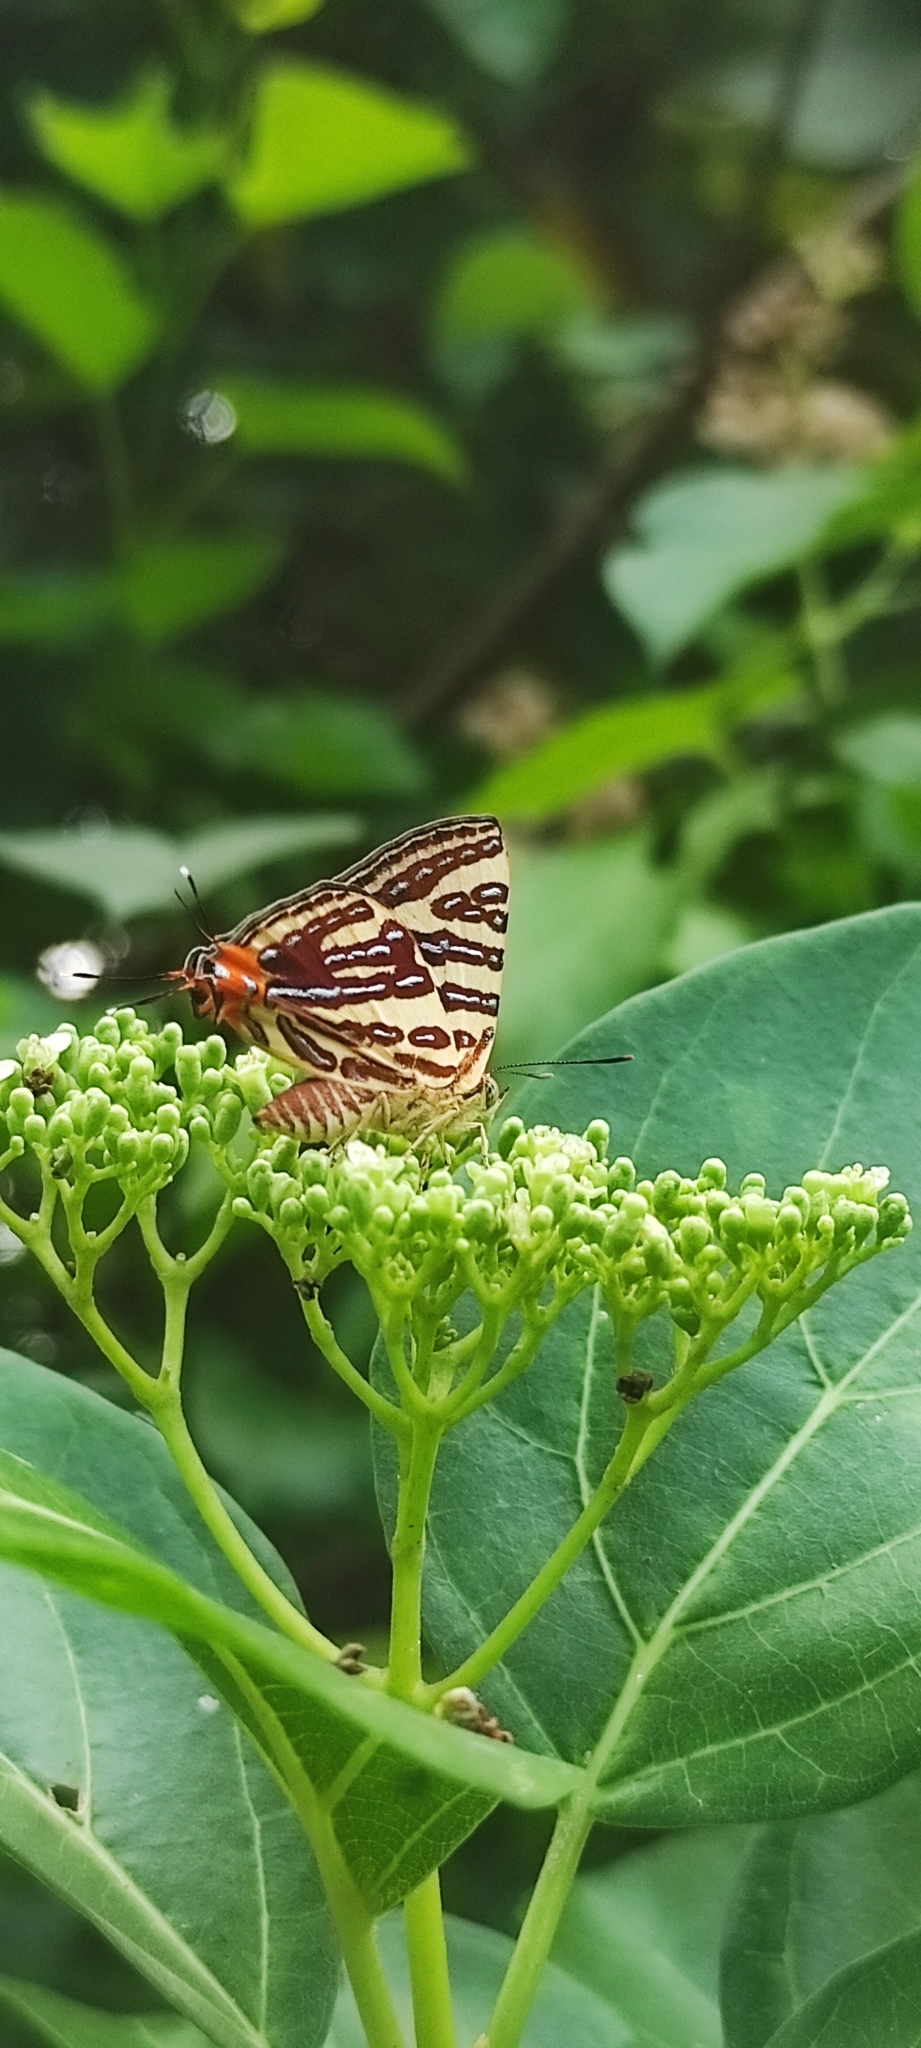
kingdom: Animalia
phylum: Arthropoda
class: Insecta
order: Lepidoptera
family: Lycaenidae
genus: Cigaritis
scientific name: Cigaritis lohita
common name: Long-banded silverline
